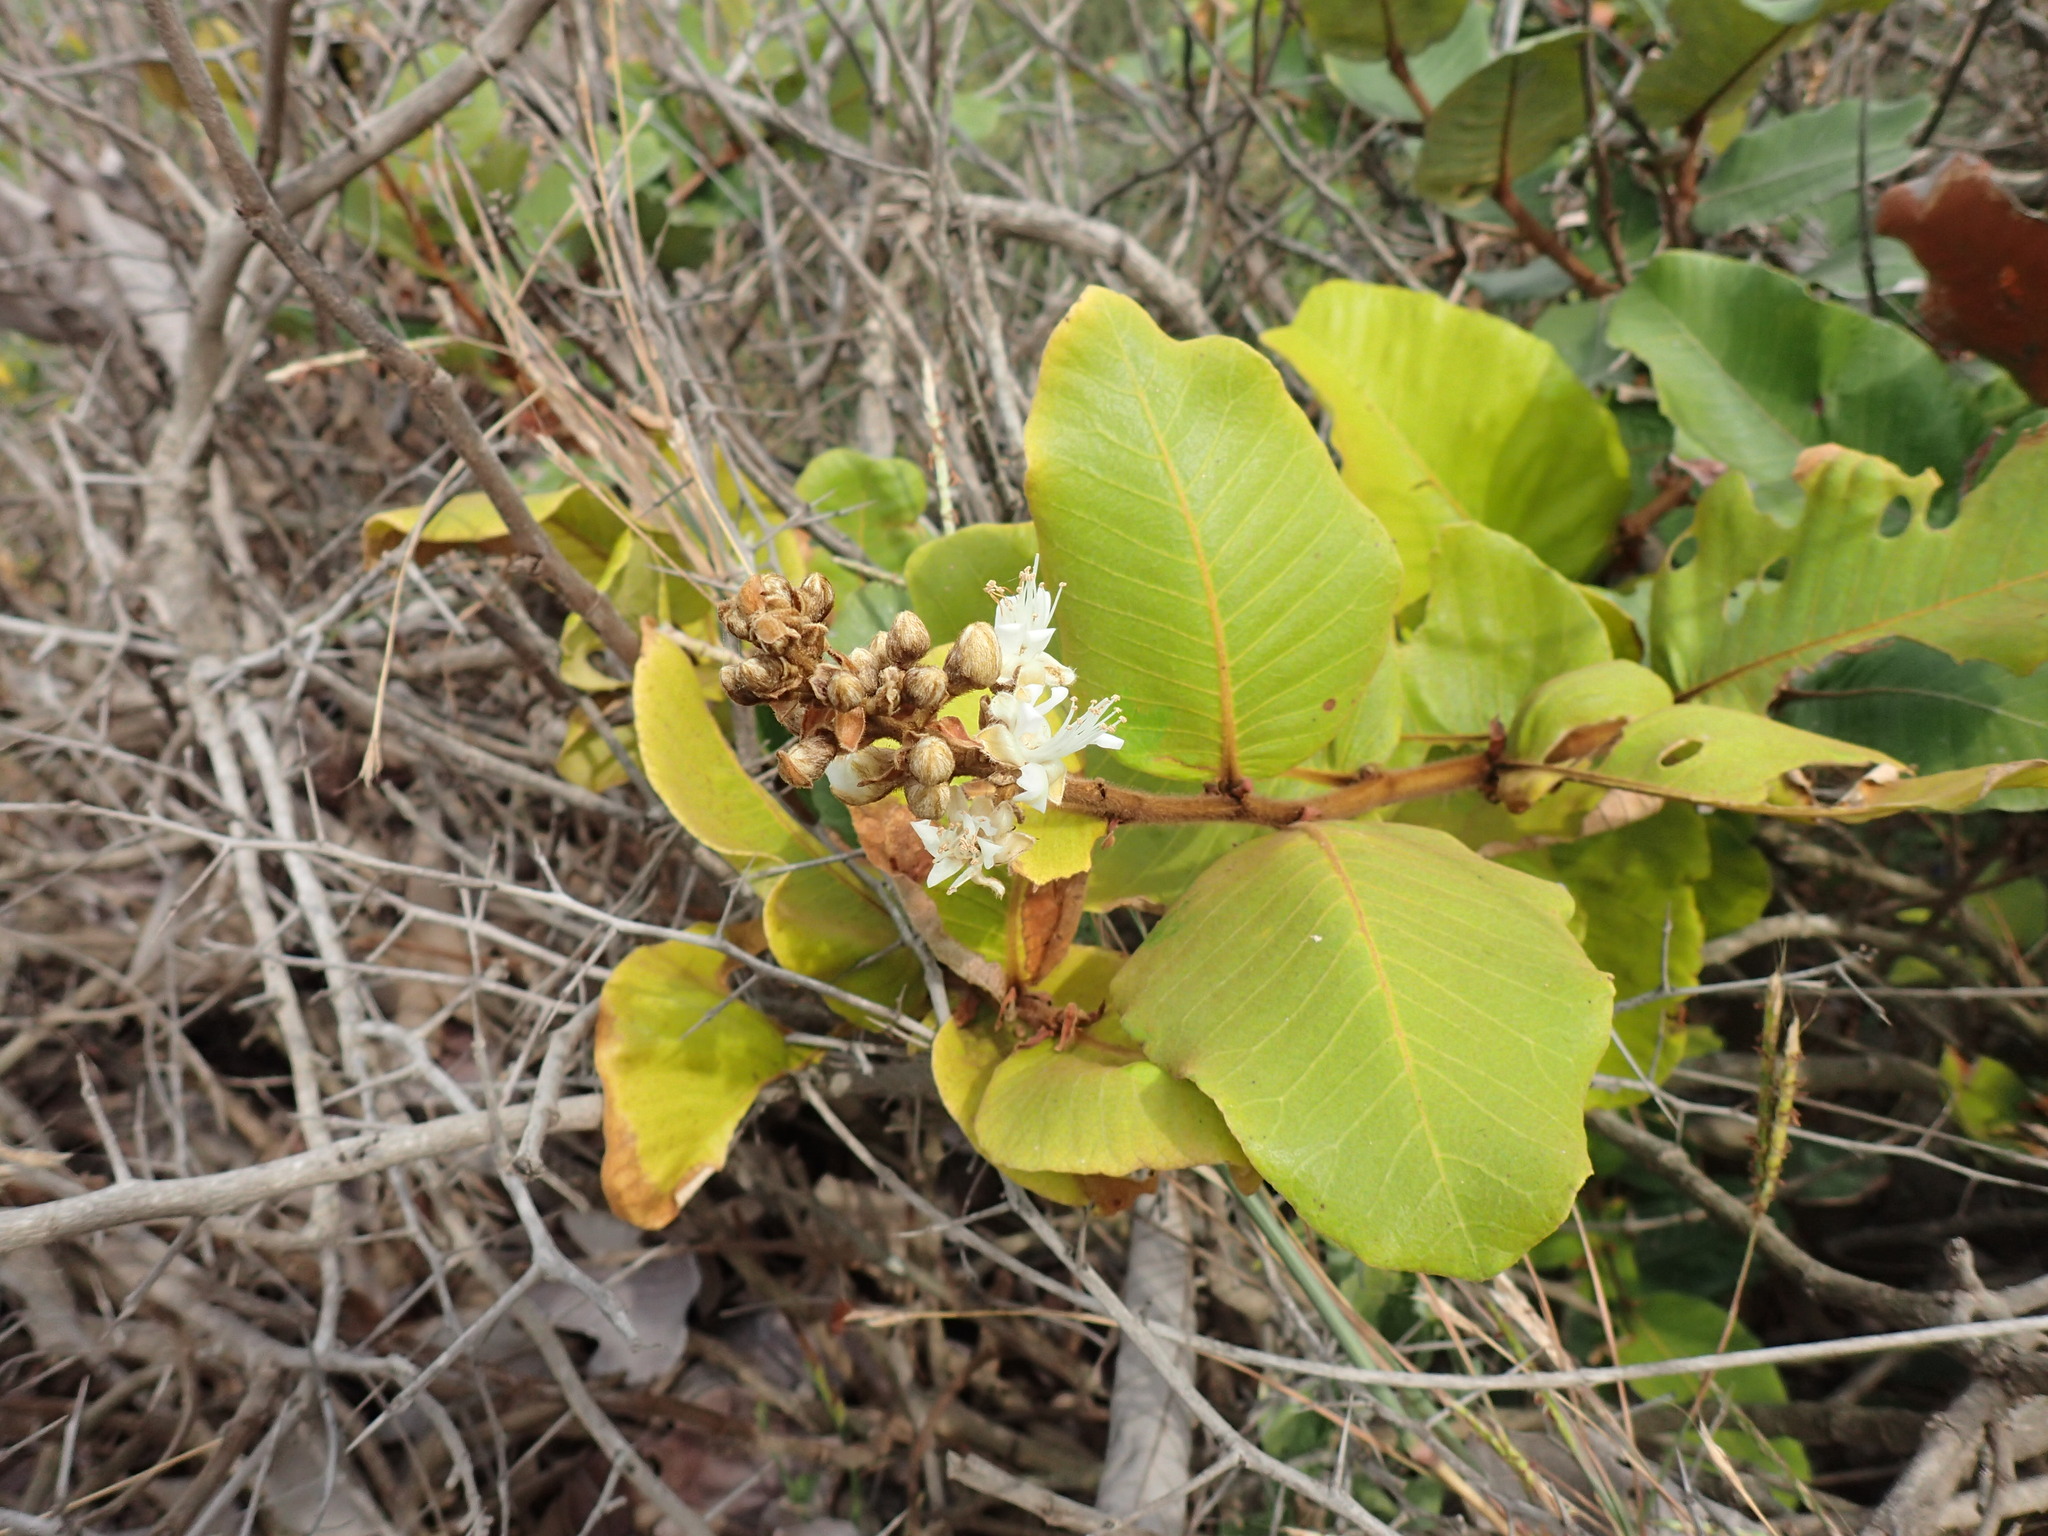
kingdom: Plantae
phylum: Tracheophyta
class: Magnoliopsida
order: Malpighiales
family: Chrysobalanaceae
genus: Neocarya
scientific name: Neocarya macrophylla
